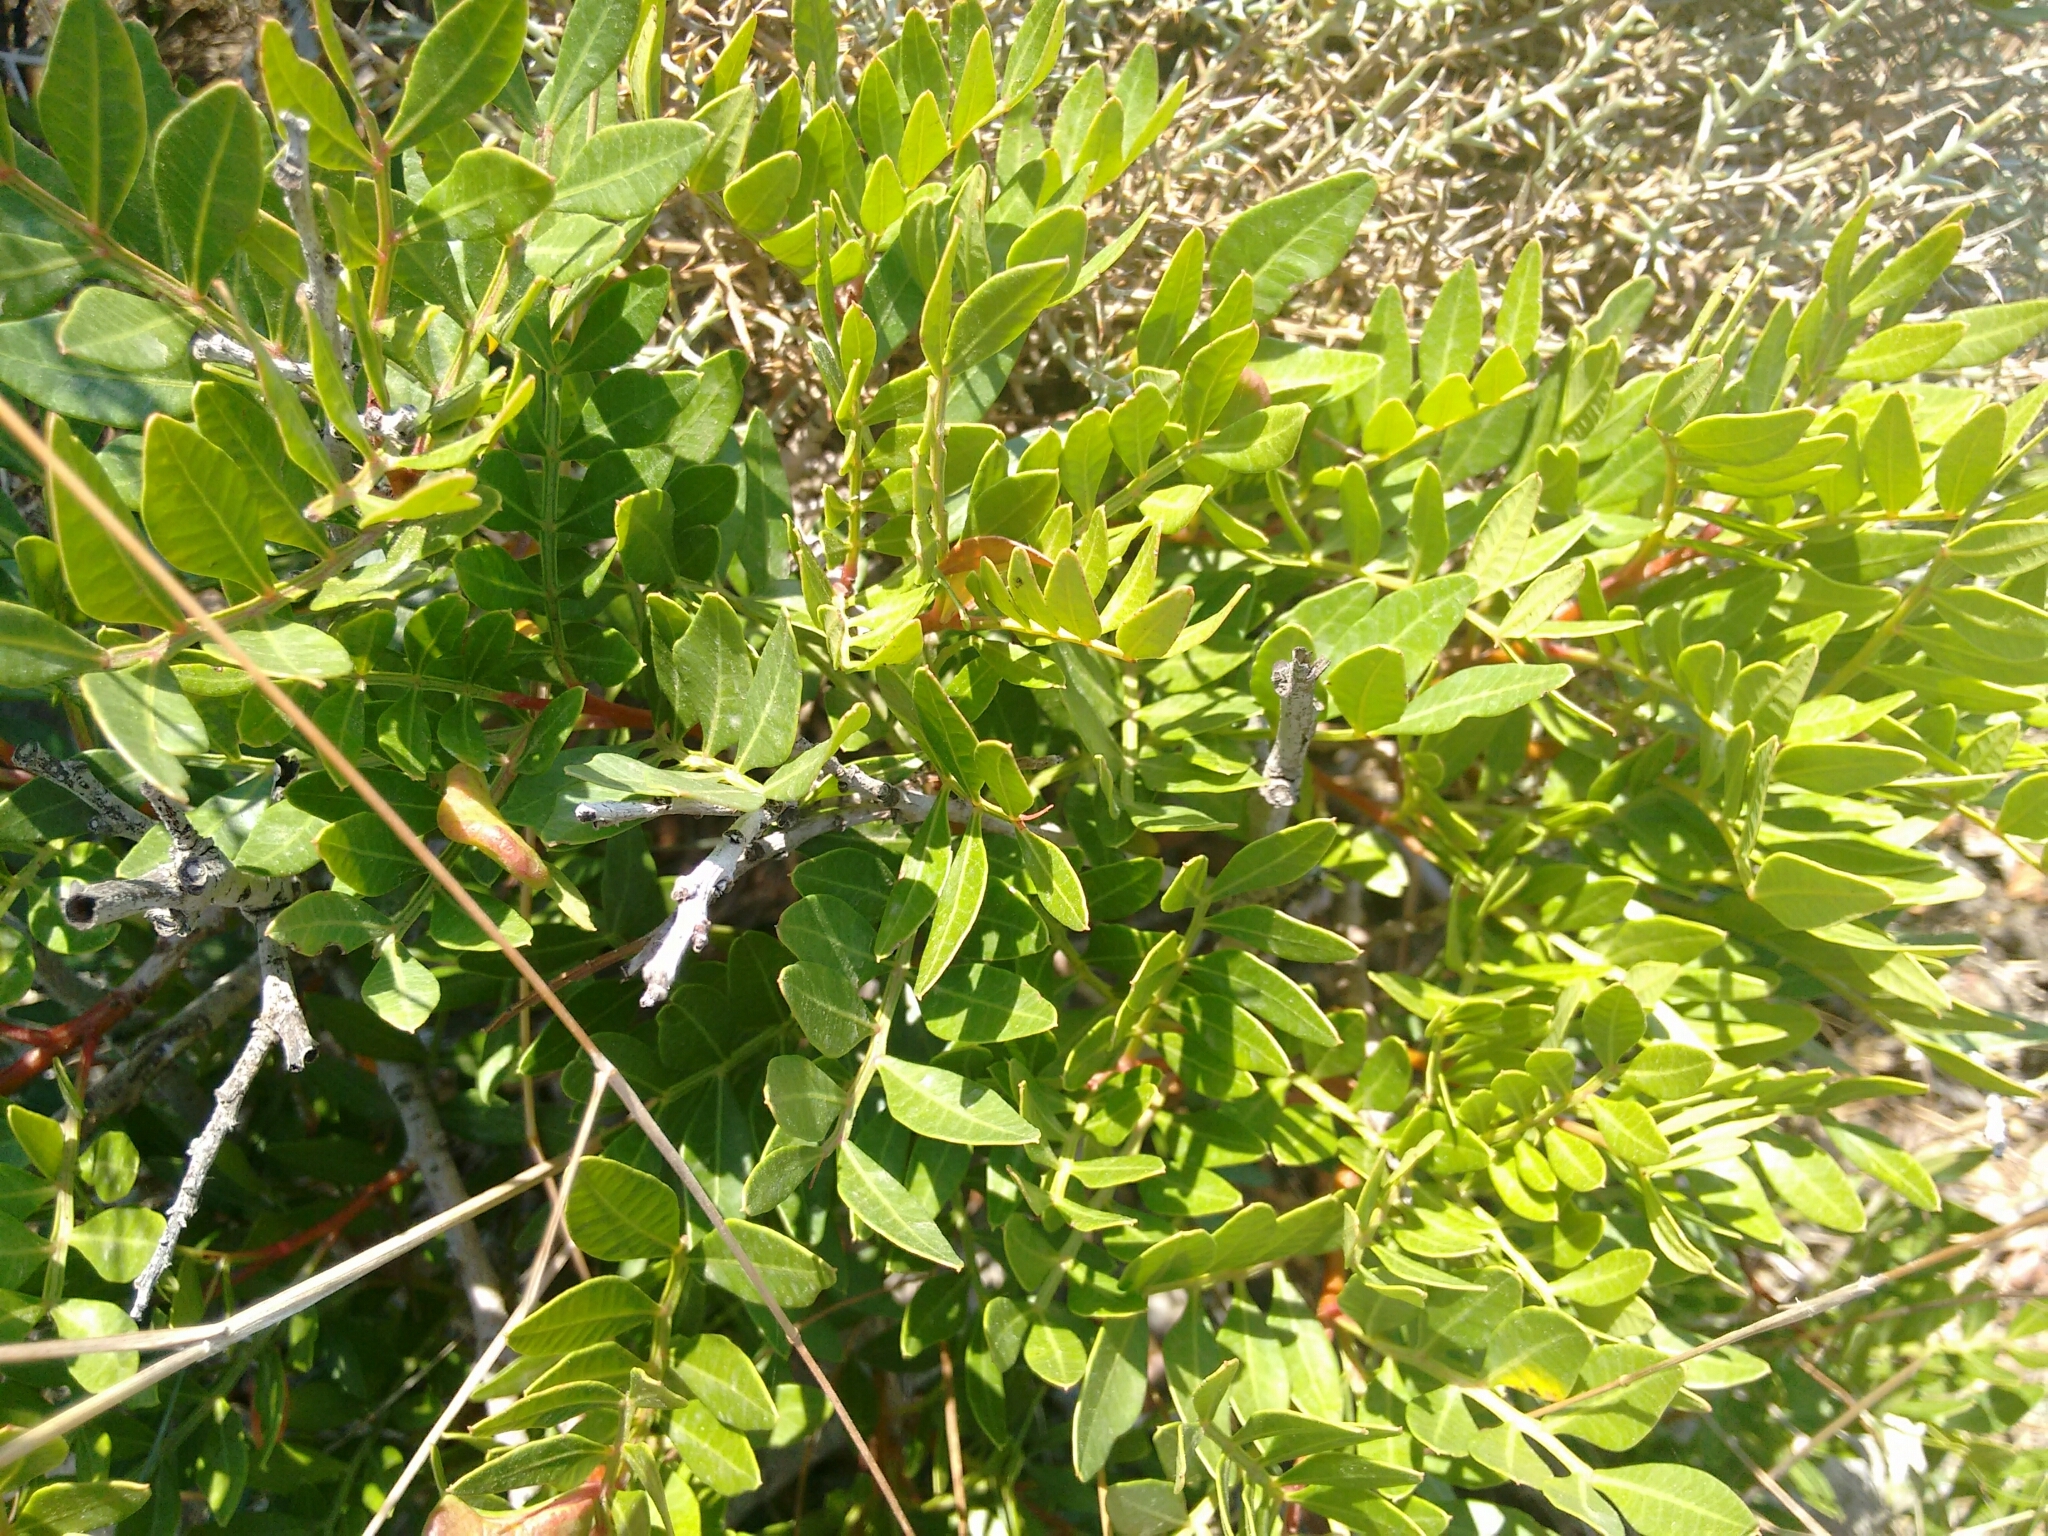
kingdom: Plantae
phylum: Tracheophyta
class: Magnoliopsida
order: Sapindales
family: Anacardiaceae
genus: Pistacia
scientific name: Pistacia lentiscus
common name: Lentisk
